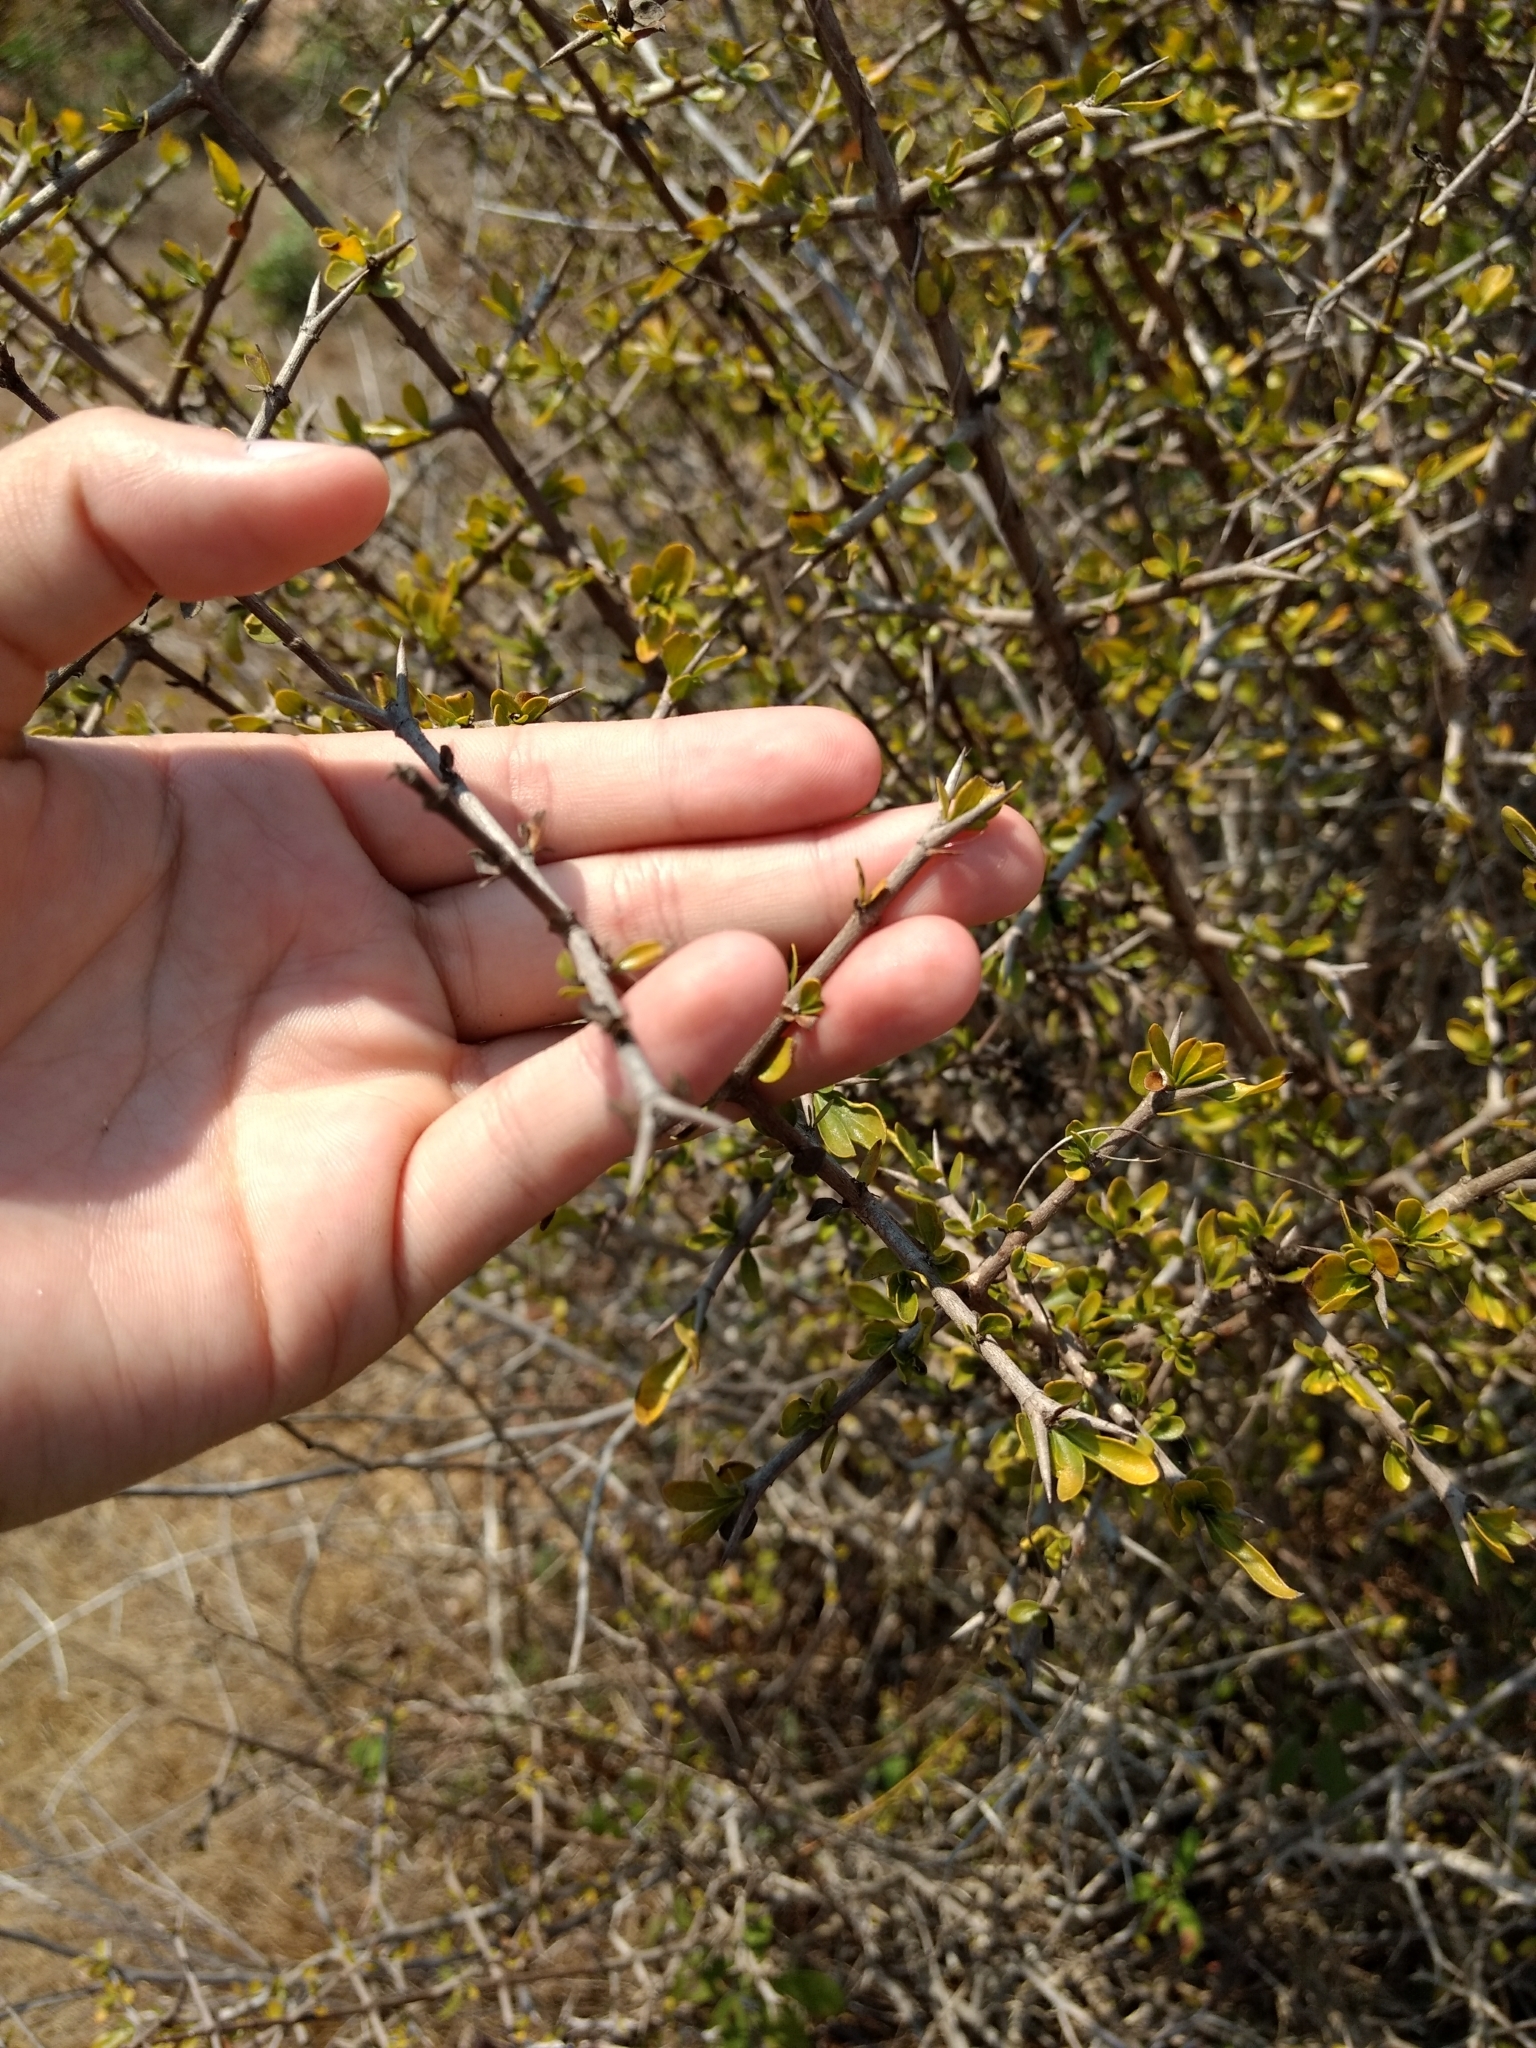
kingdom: Plantae
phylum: Tracheophyta
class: Magnoliopsida
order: Solanales
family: Solanaceae
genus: Lycium
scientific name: Lycium berlandieri
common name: Berlandier wolfberry
